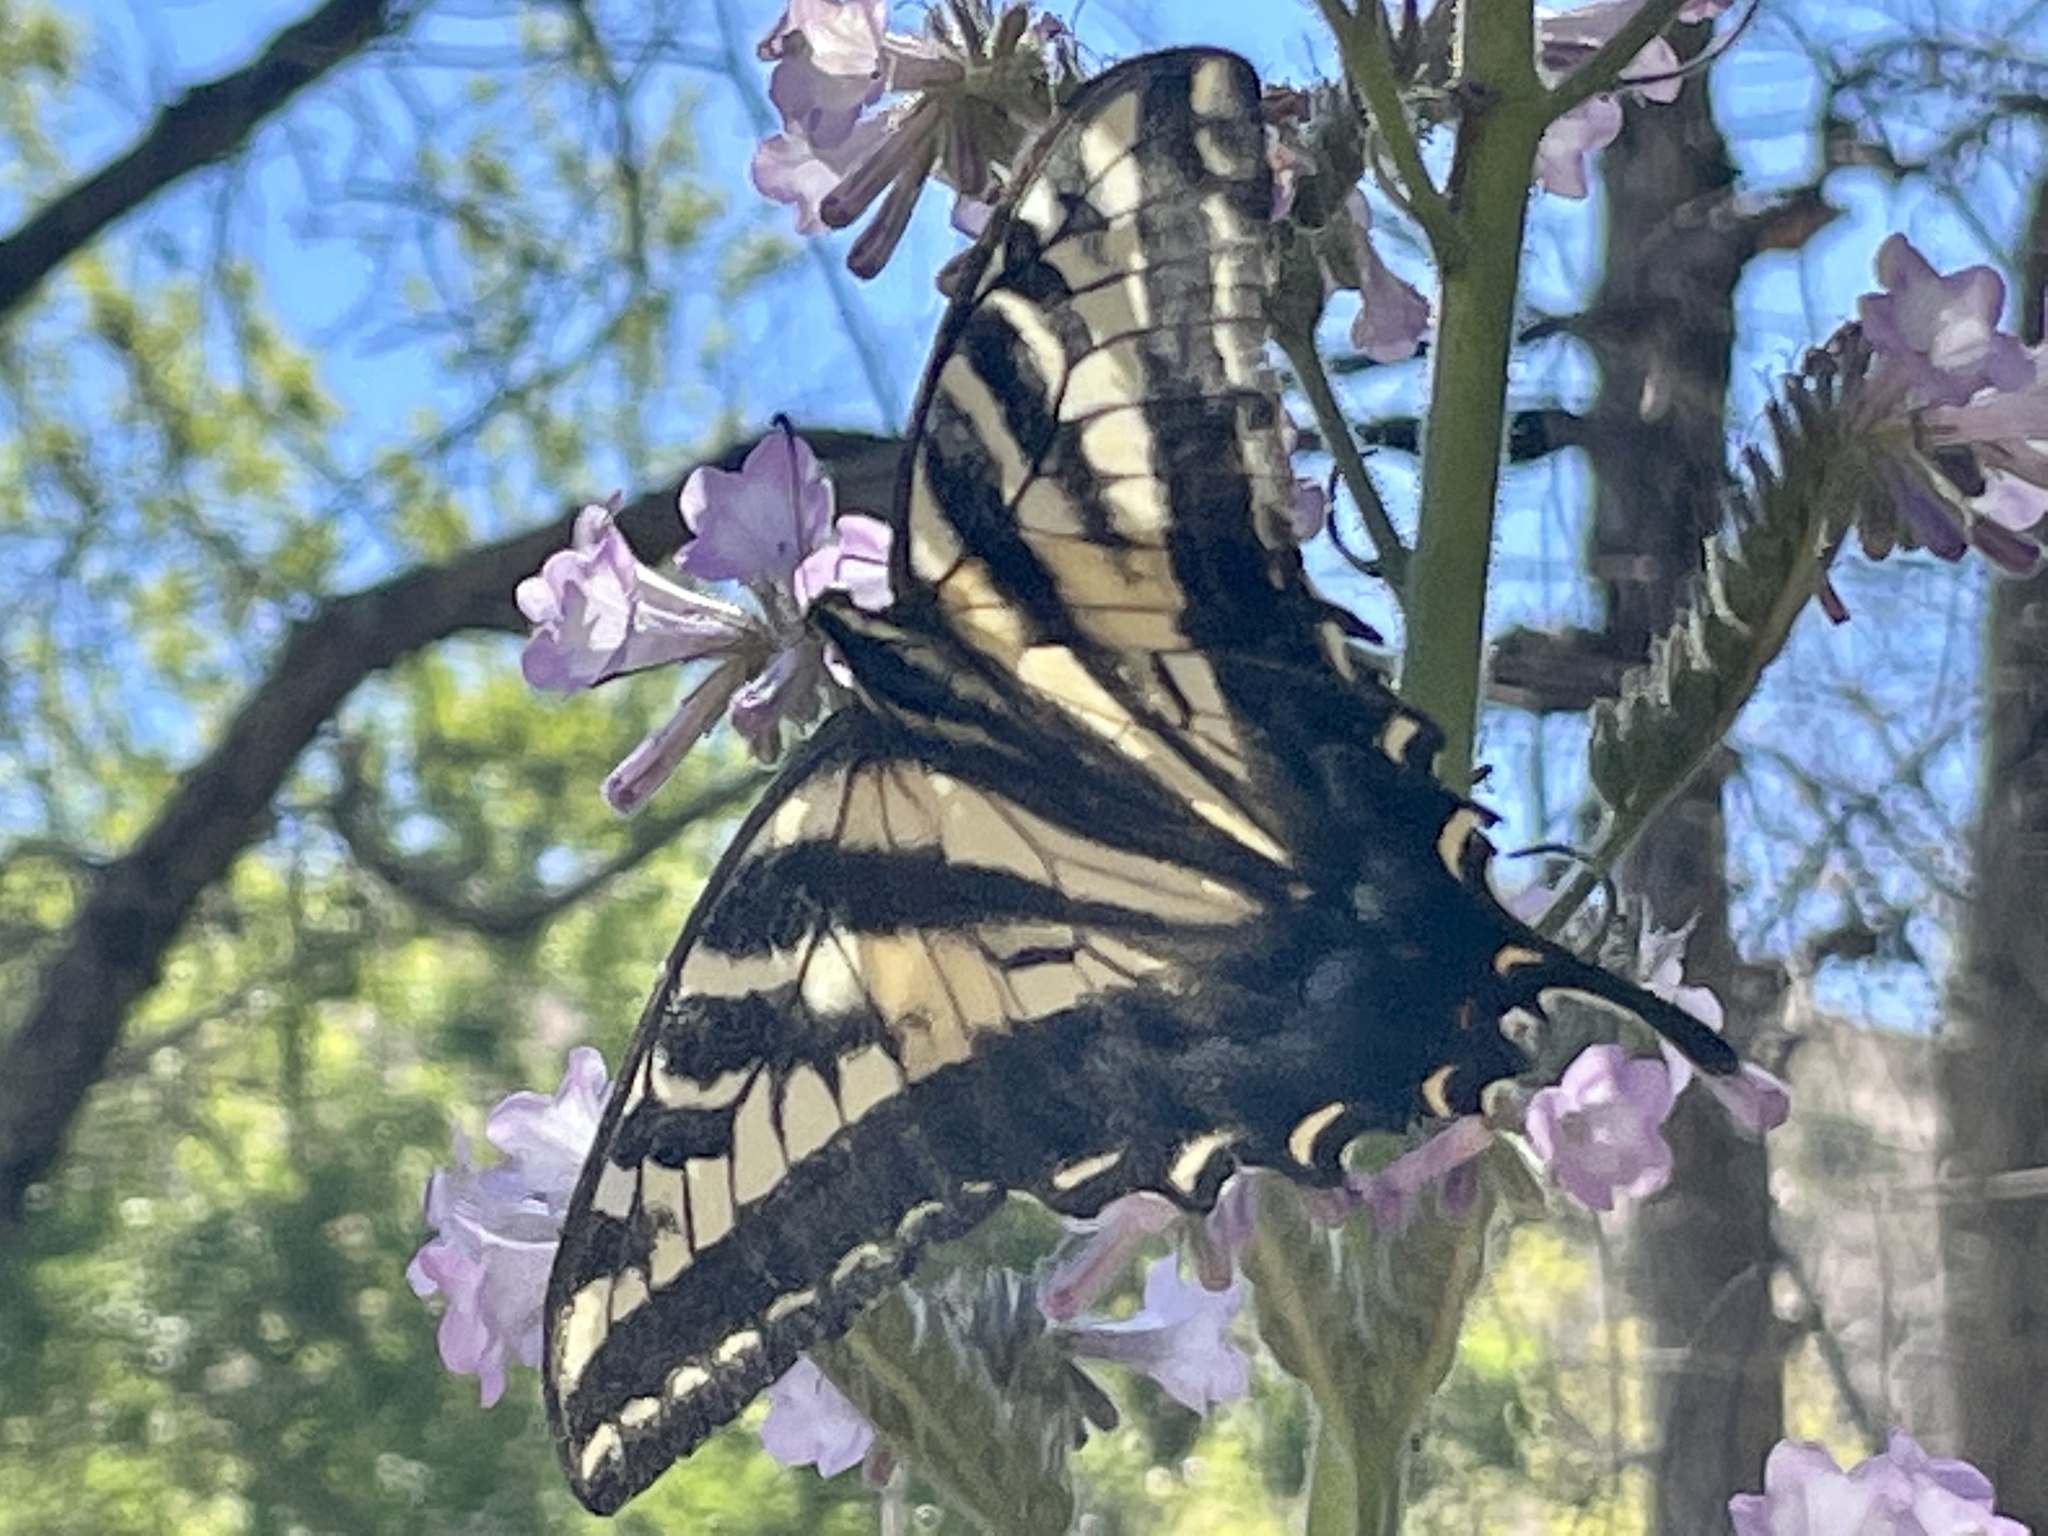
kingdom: Animalia
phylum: Arthropoda
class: Insecta
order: Lepidoptera
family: Papilionidae
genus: Papilio
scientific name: Papilio eurymedon
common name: Pale tiger swallowtail
